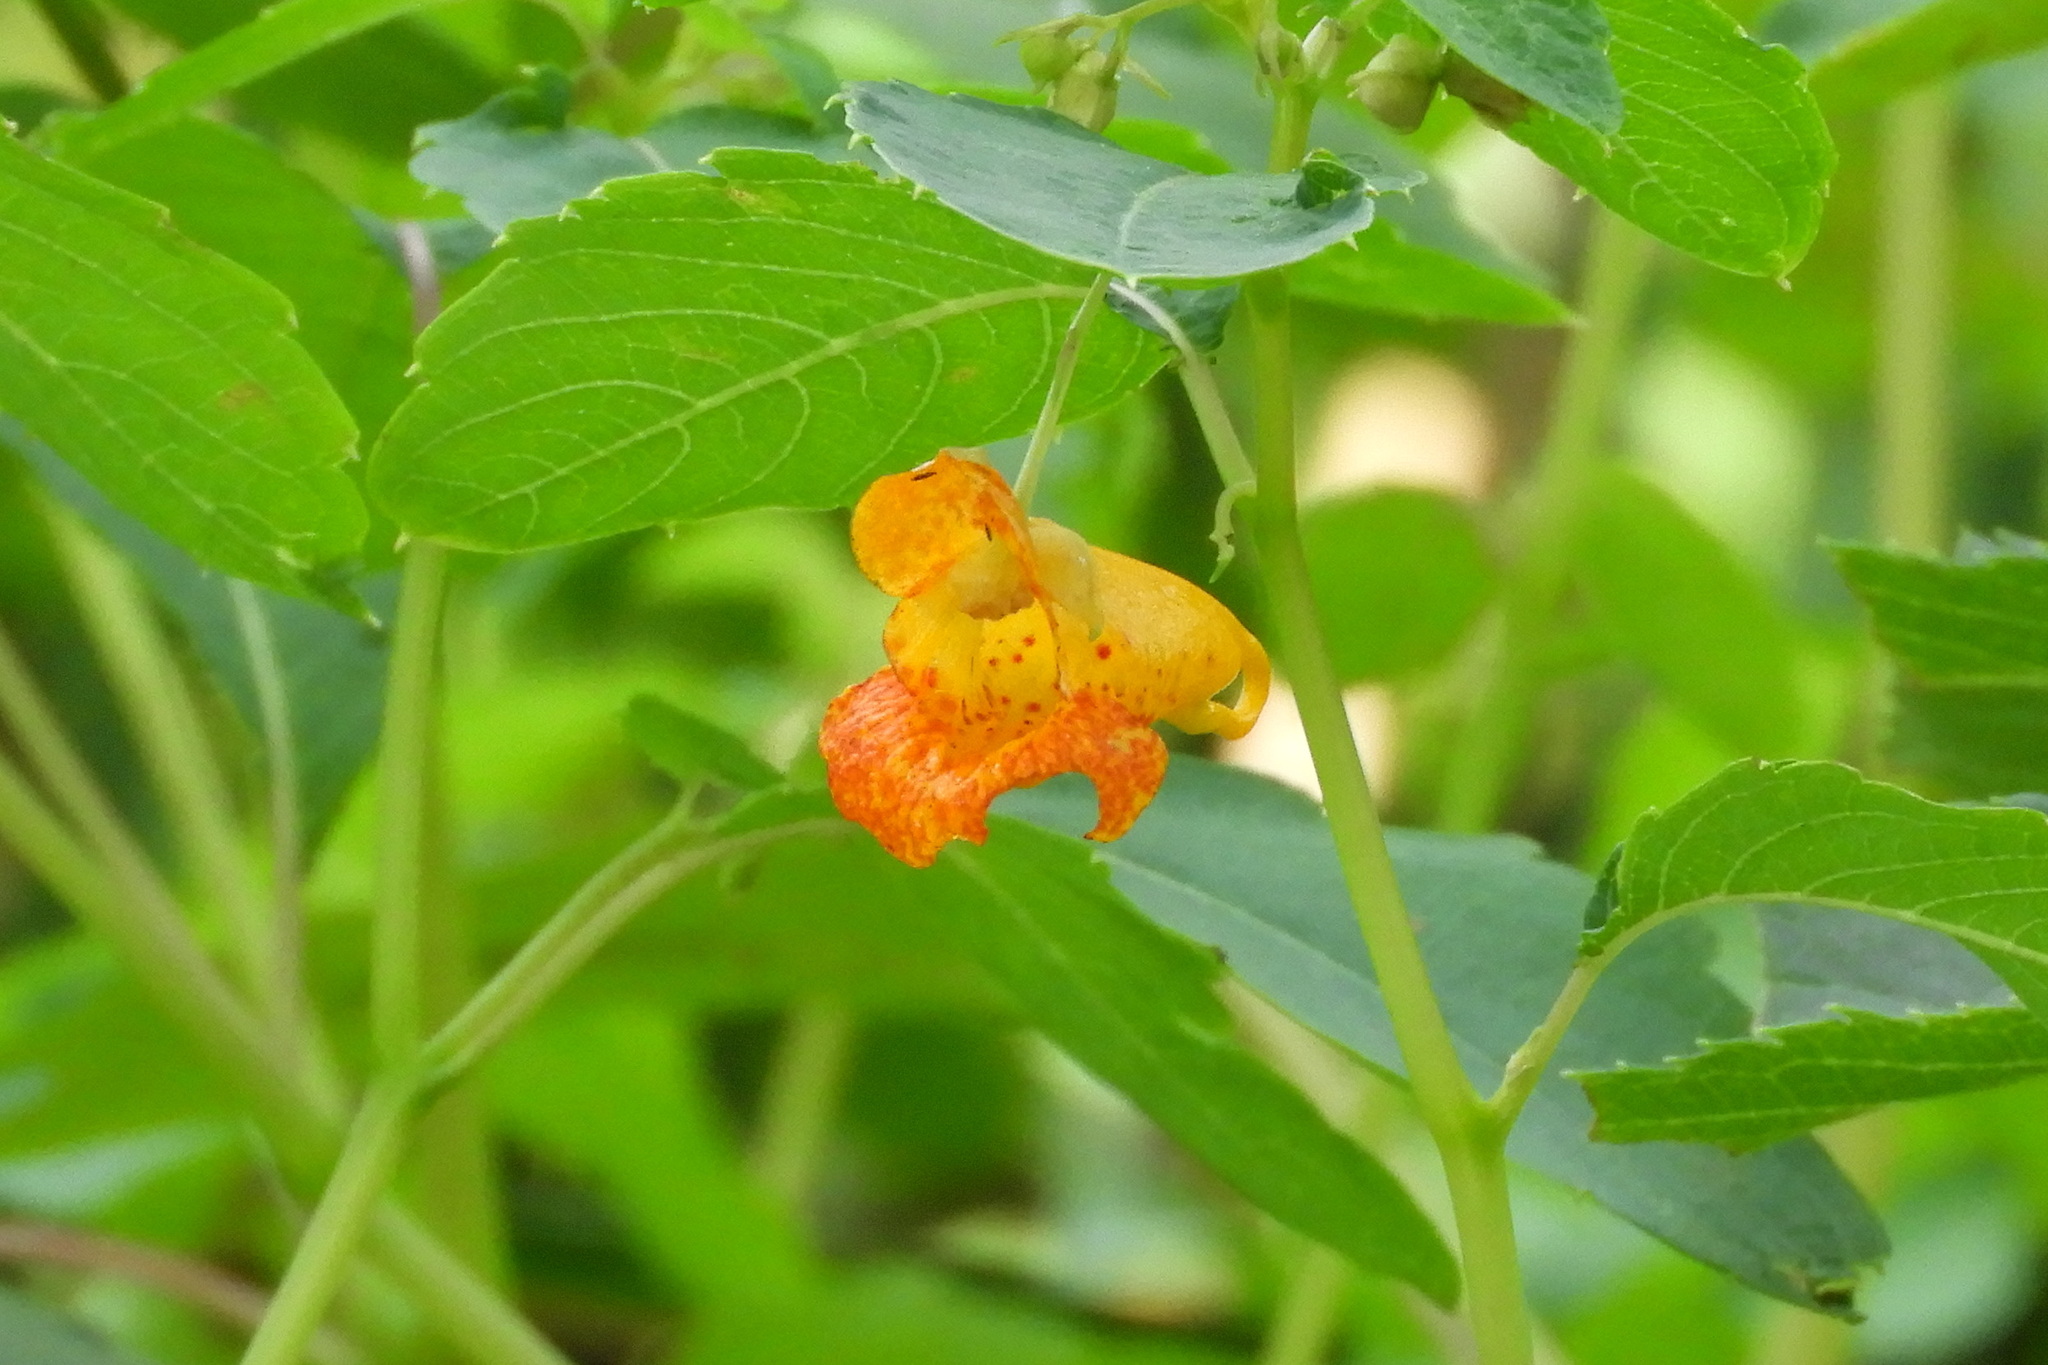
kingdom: Plantae
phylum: Tracheophyta
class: Magnoliopsida
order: Ericales
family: Balsaminaceae
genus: Impatiens
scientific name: Impatiens capensis
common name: Orange balsam
